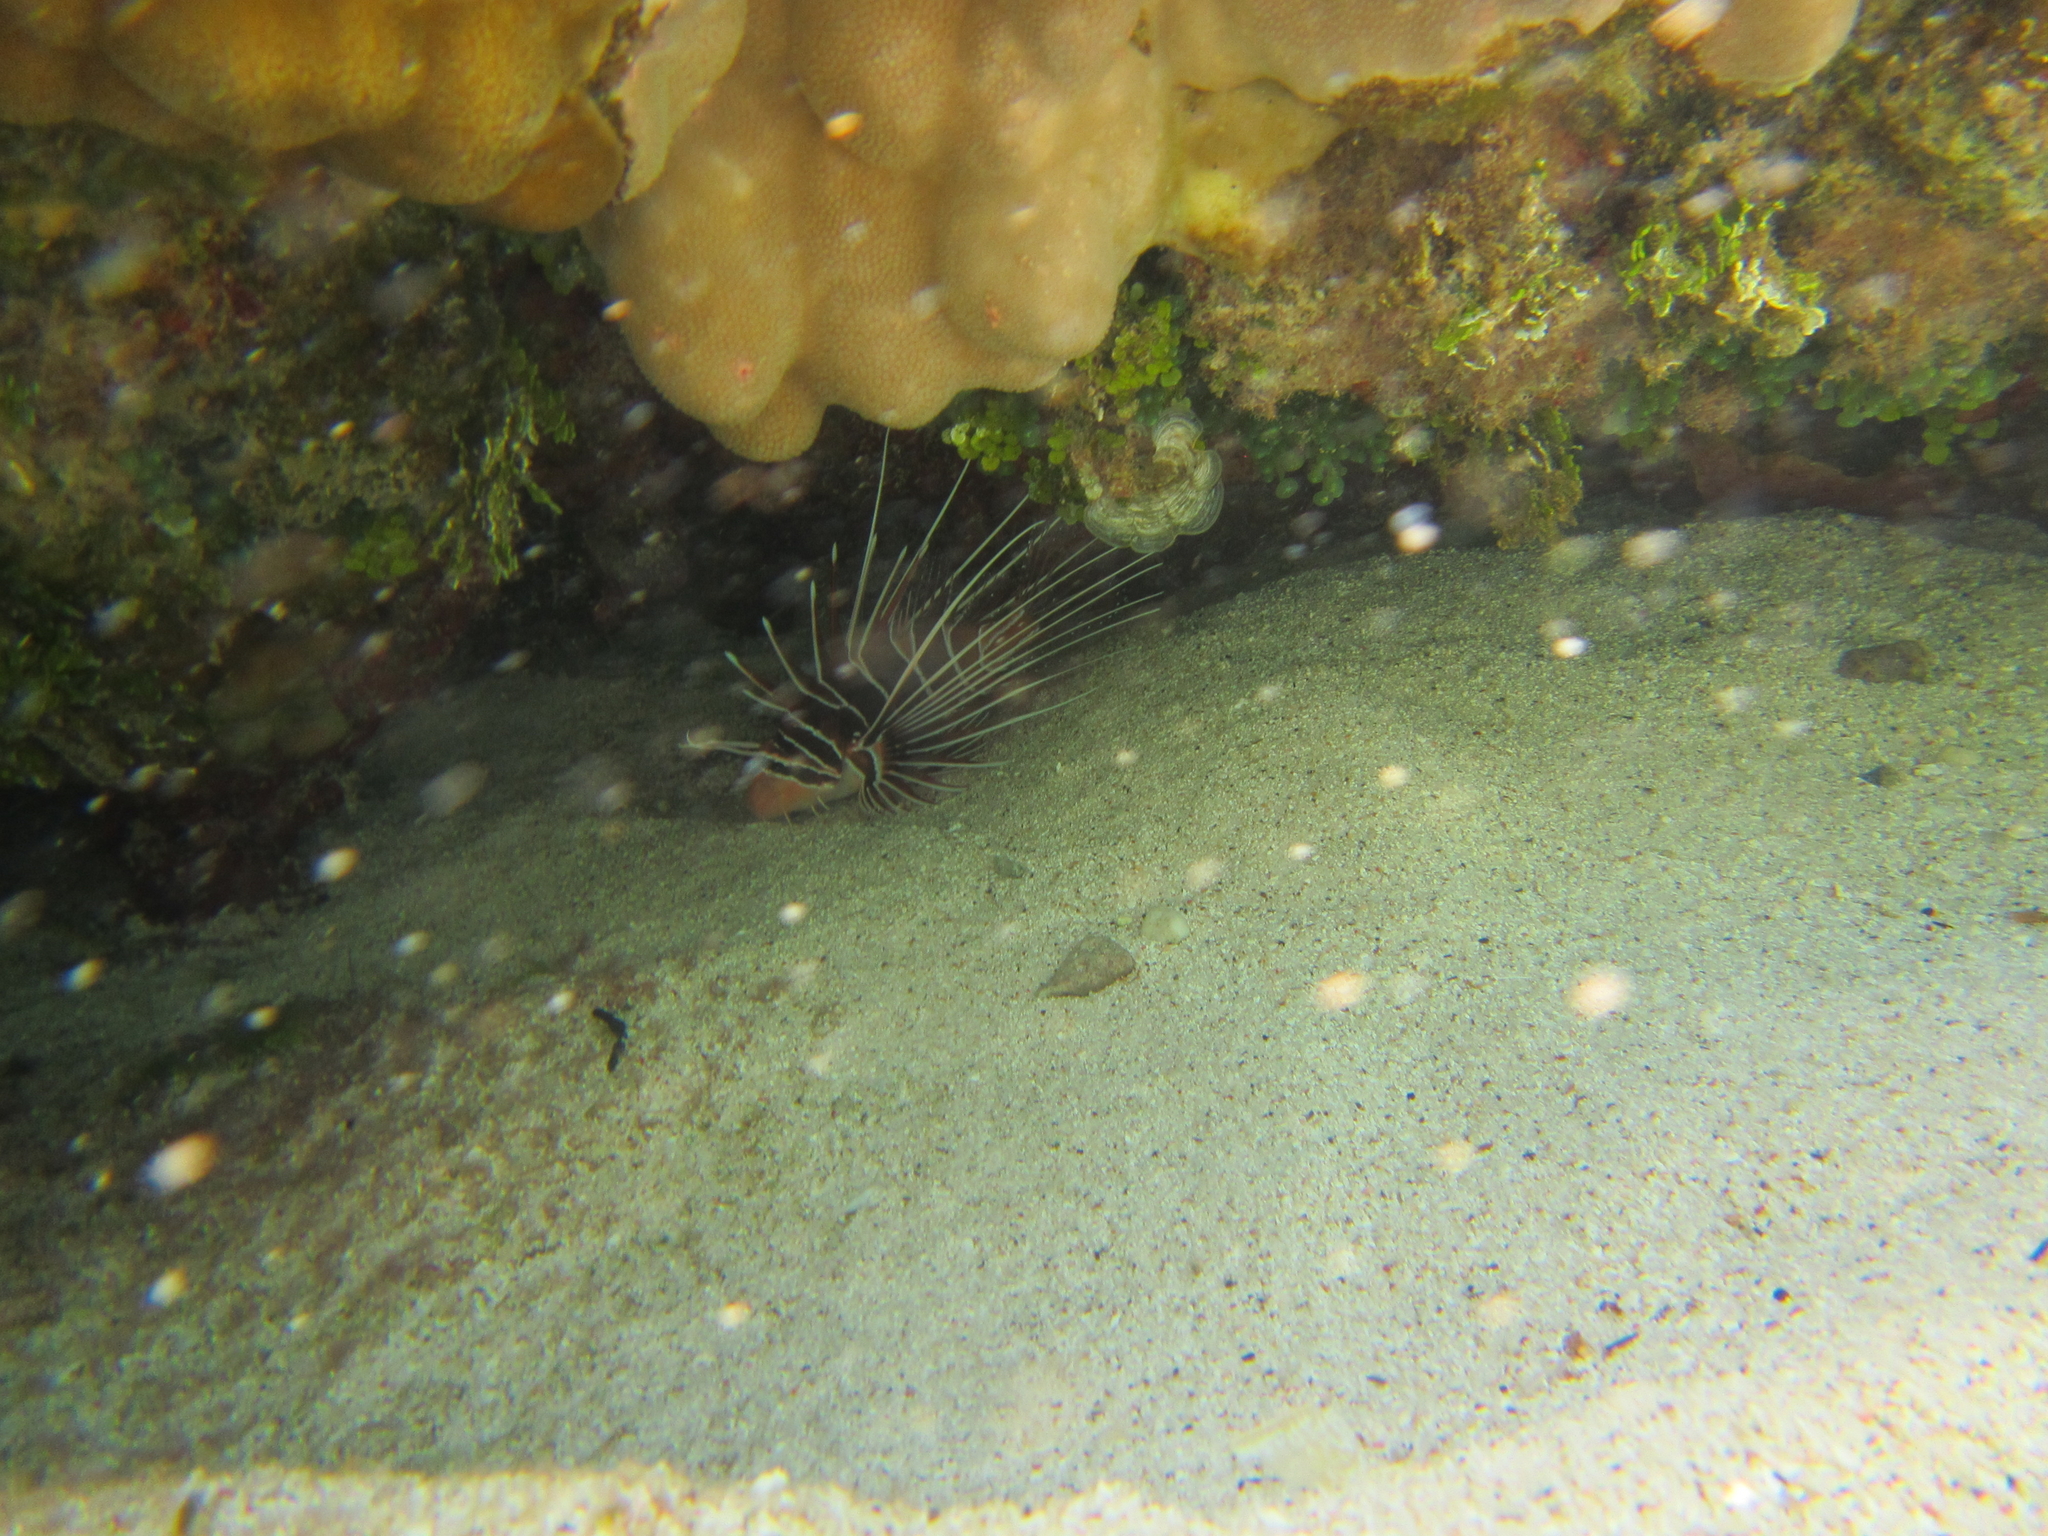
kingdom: Animalia
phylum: Chordata
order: Scorpaeniformes
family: Scorpaenidae
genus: Pterois
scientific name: Pterois radiata
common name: Radial firefish
